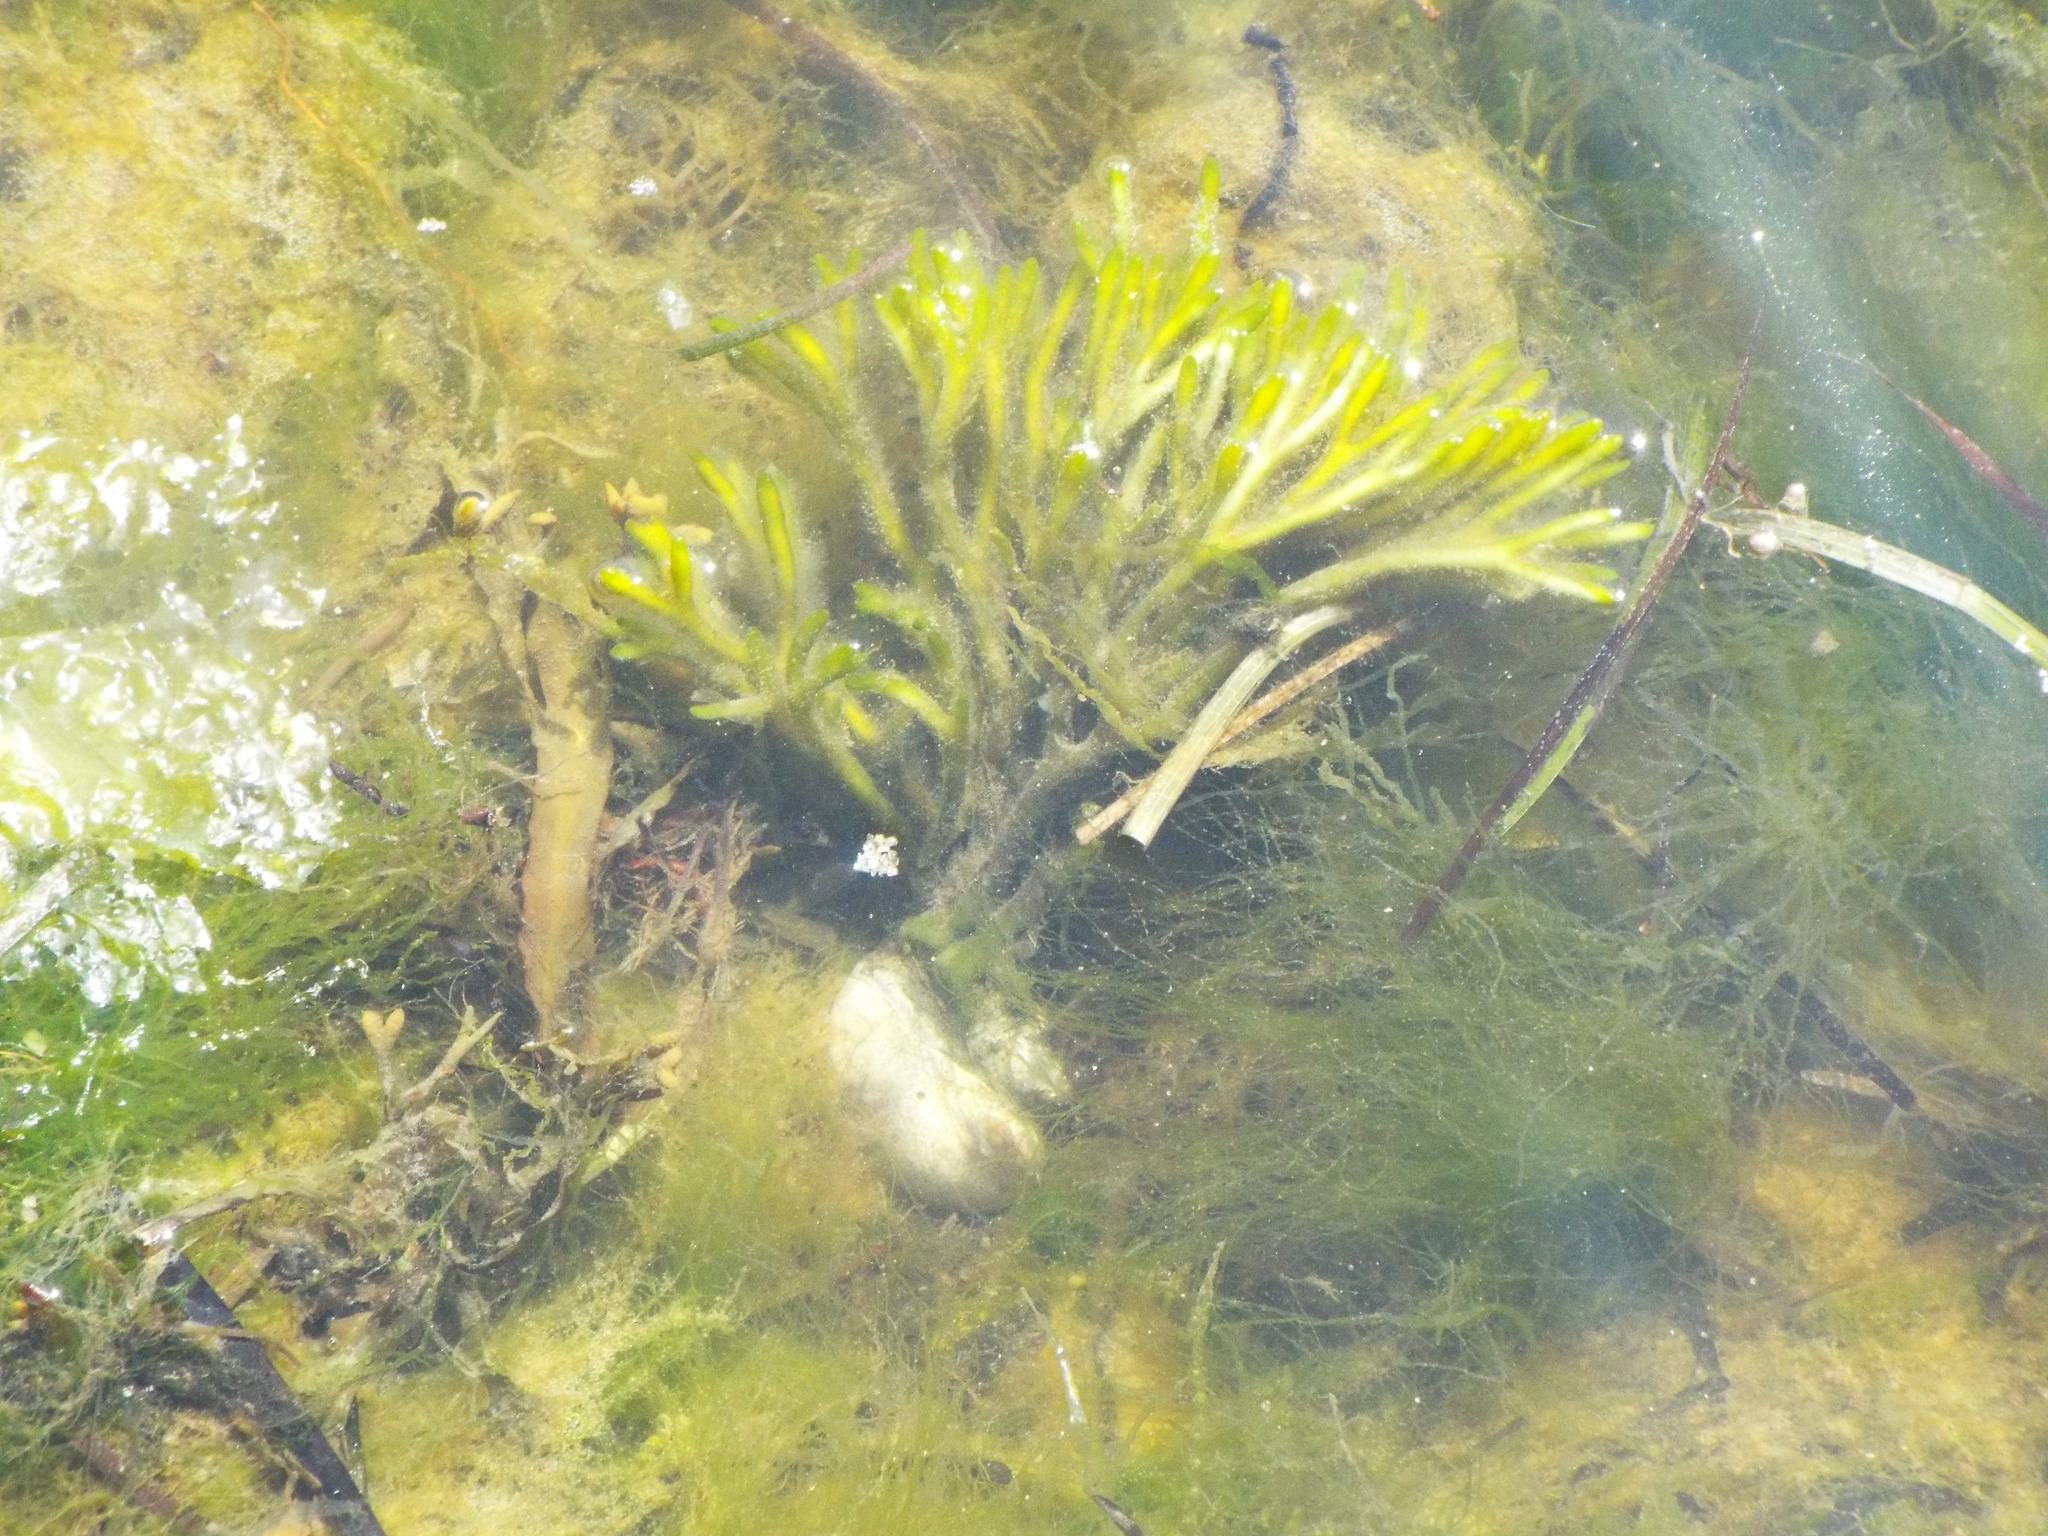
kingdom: Plantae
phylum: Chlorophyta
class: Ulvophyceae
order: Bryopsidales
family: Codiaceae
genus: Codium
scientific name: Codium fragile
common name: Dead man's fingers
